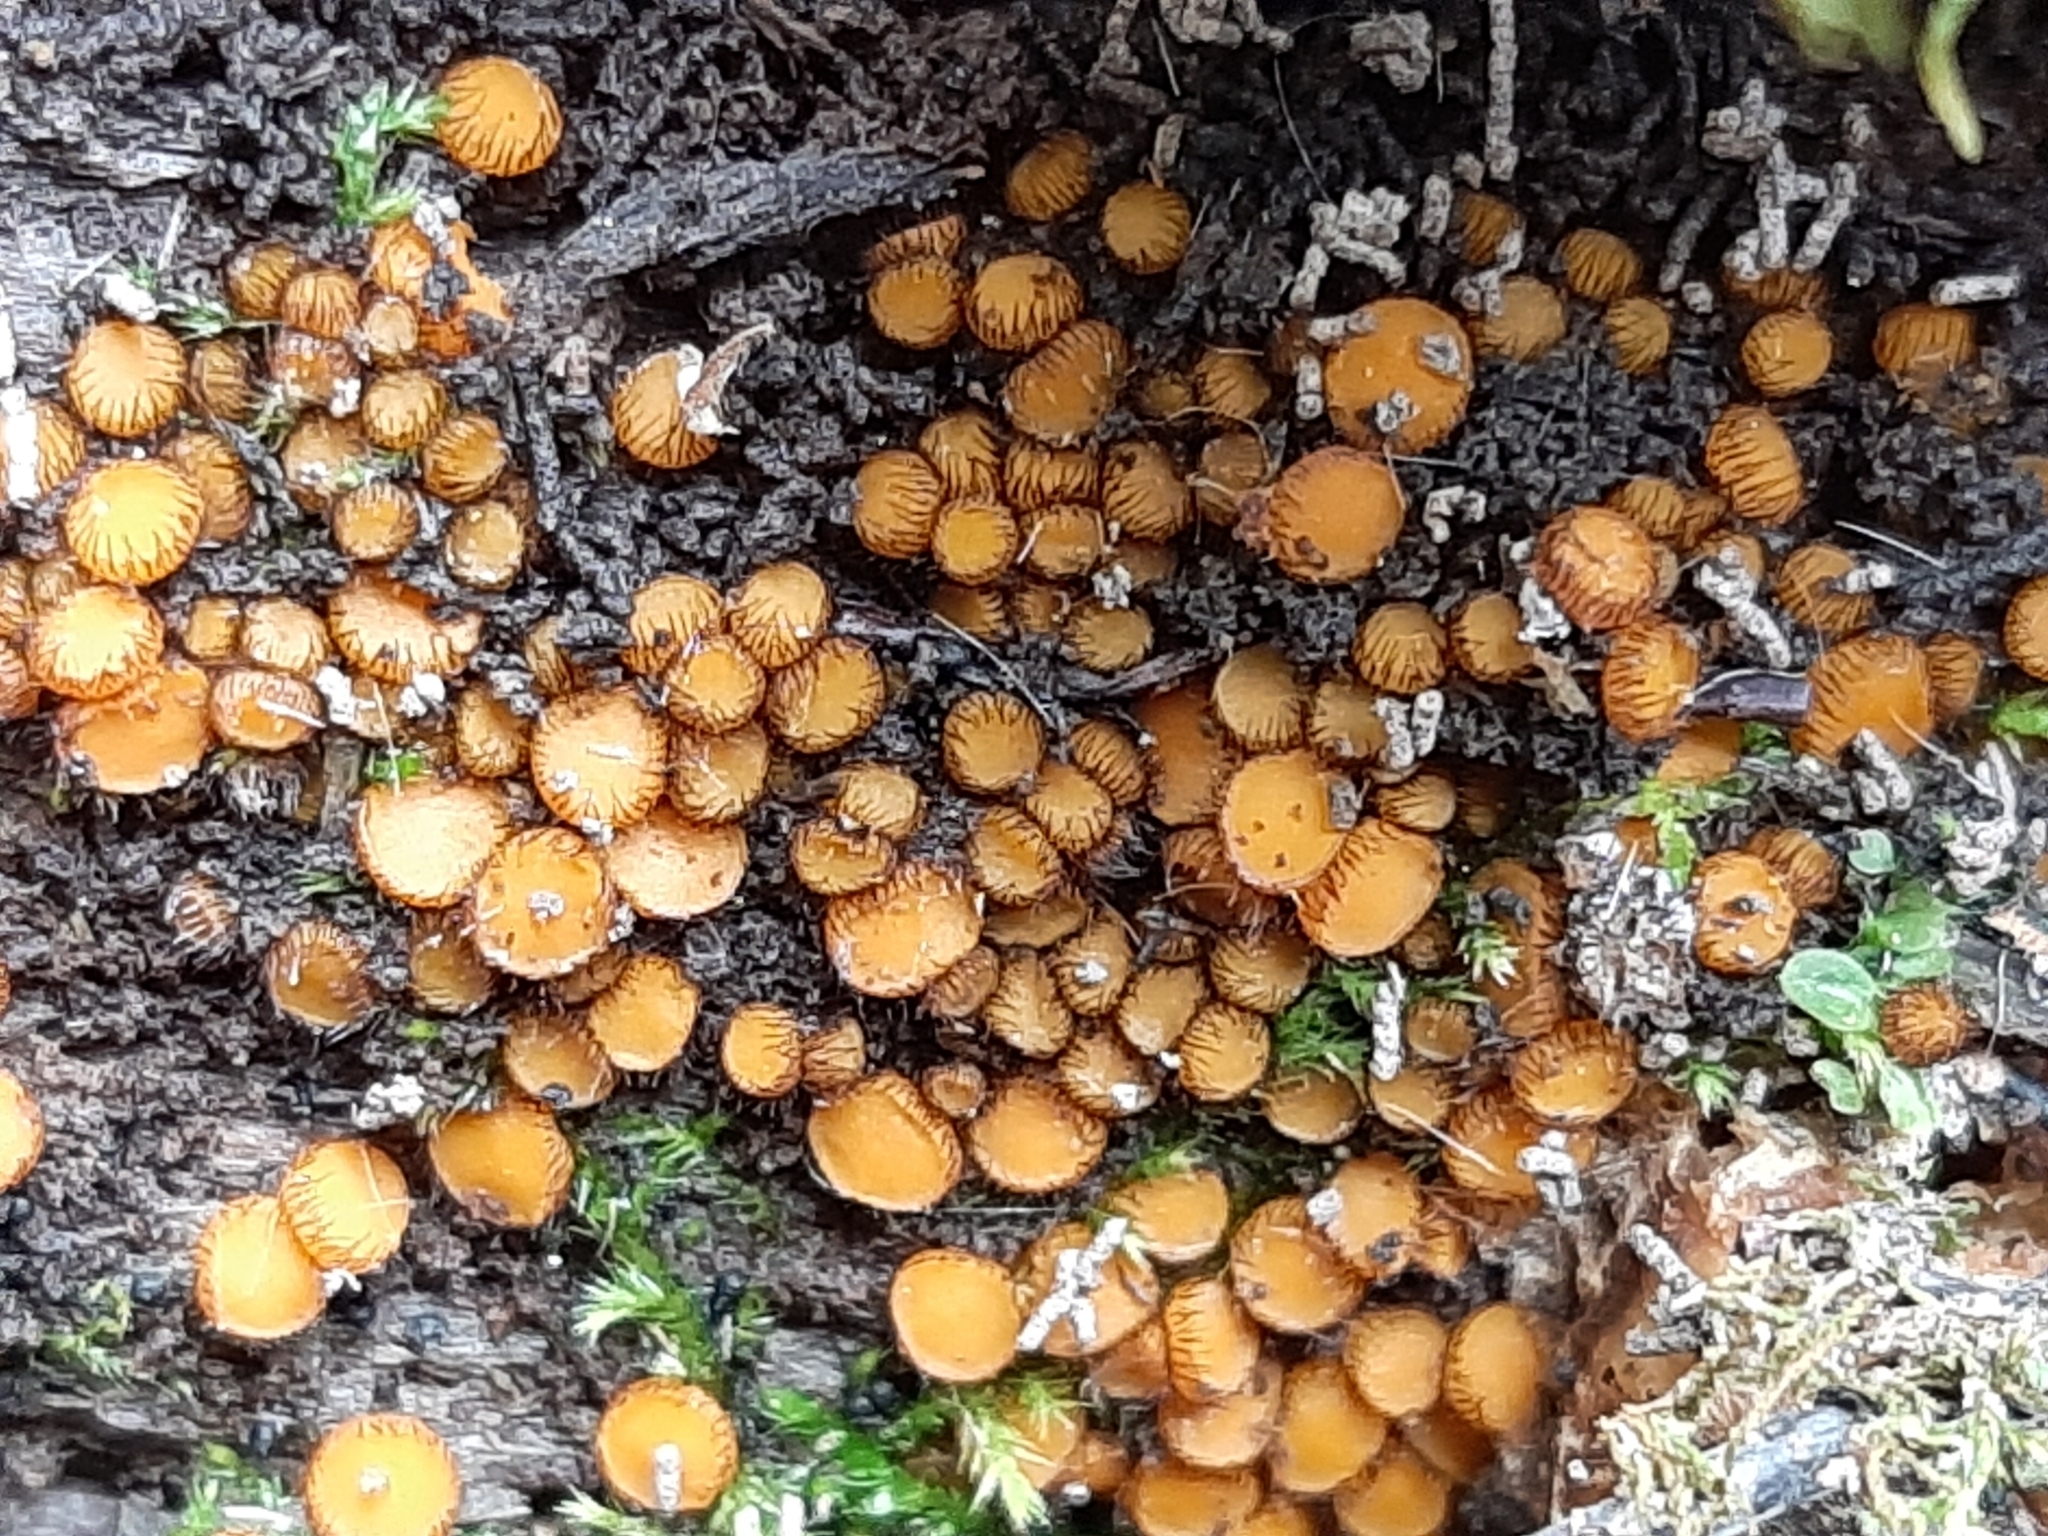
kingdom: Fungi
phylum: Ascomycota
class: Pezizomycetes
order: Pezizales
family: Pyronemataceae
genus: Scutellinia
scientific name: Scutellinia setosa
